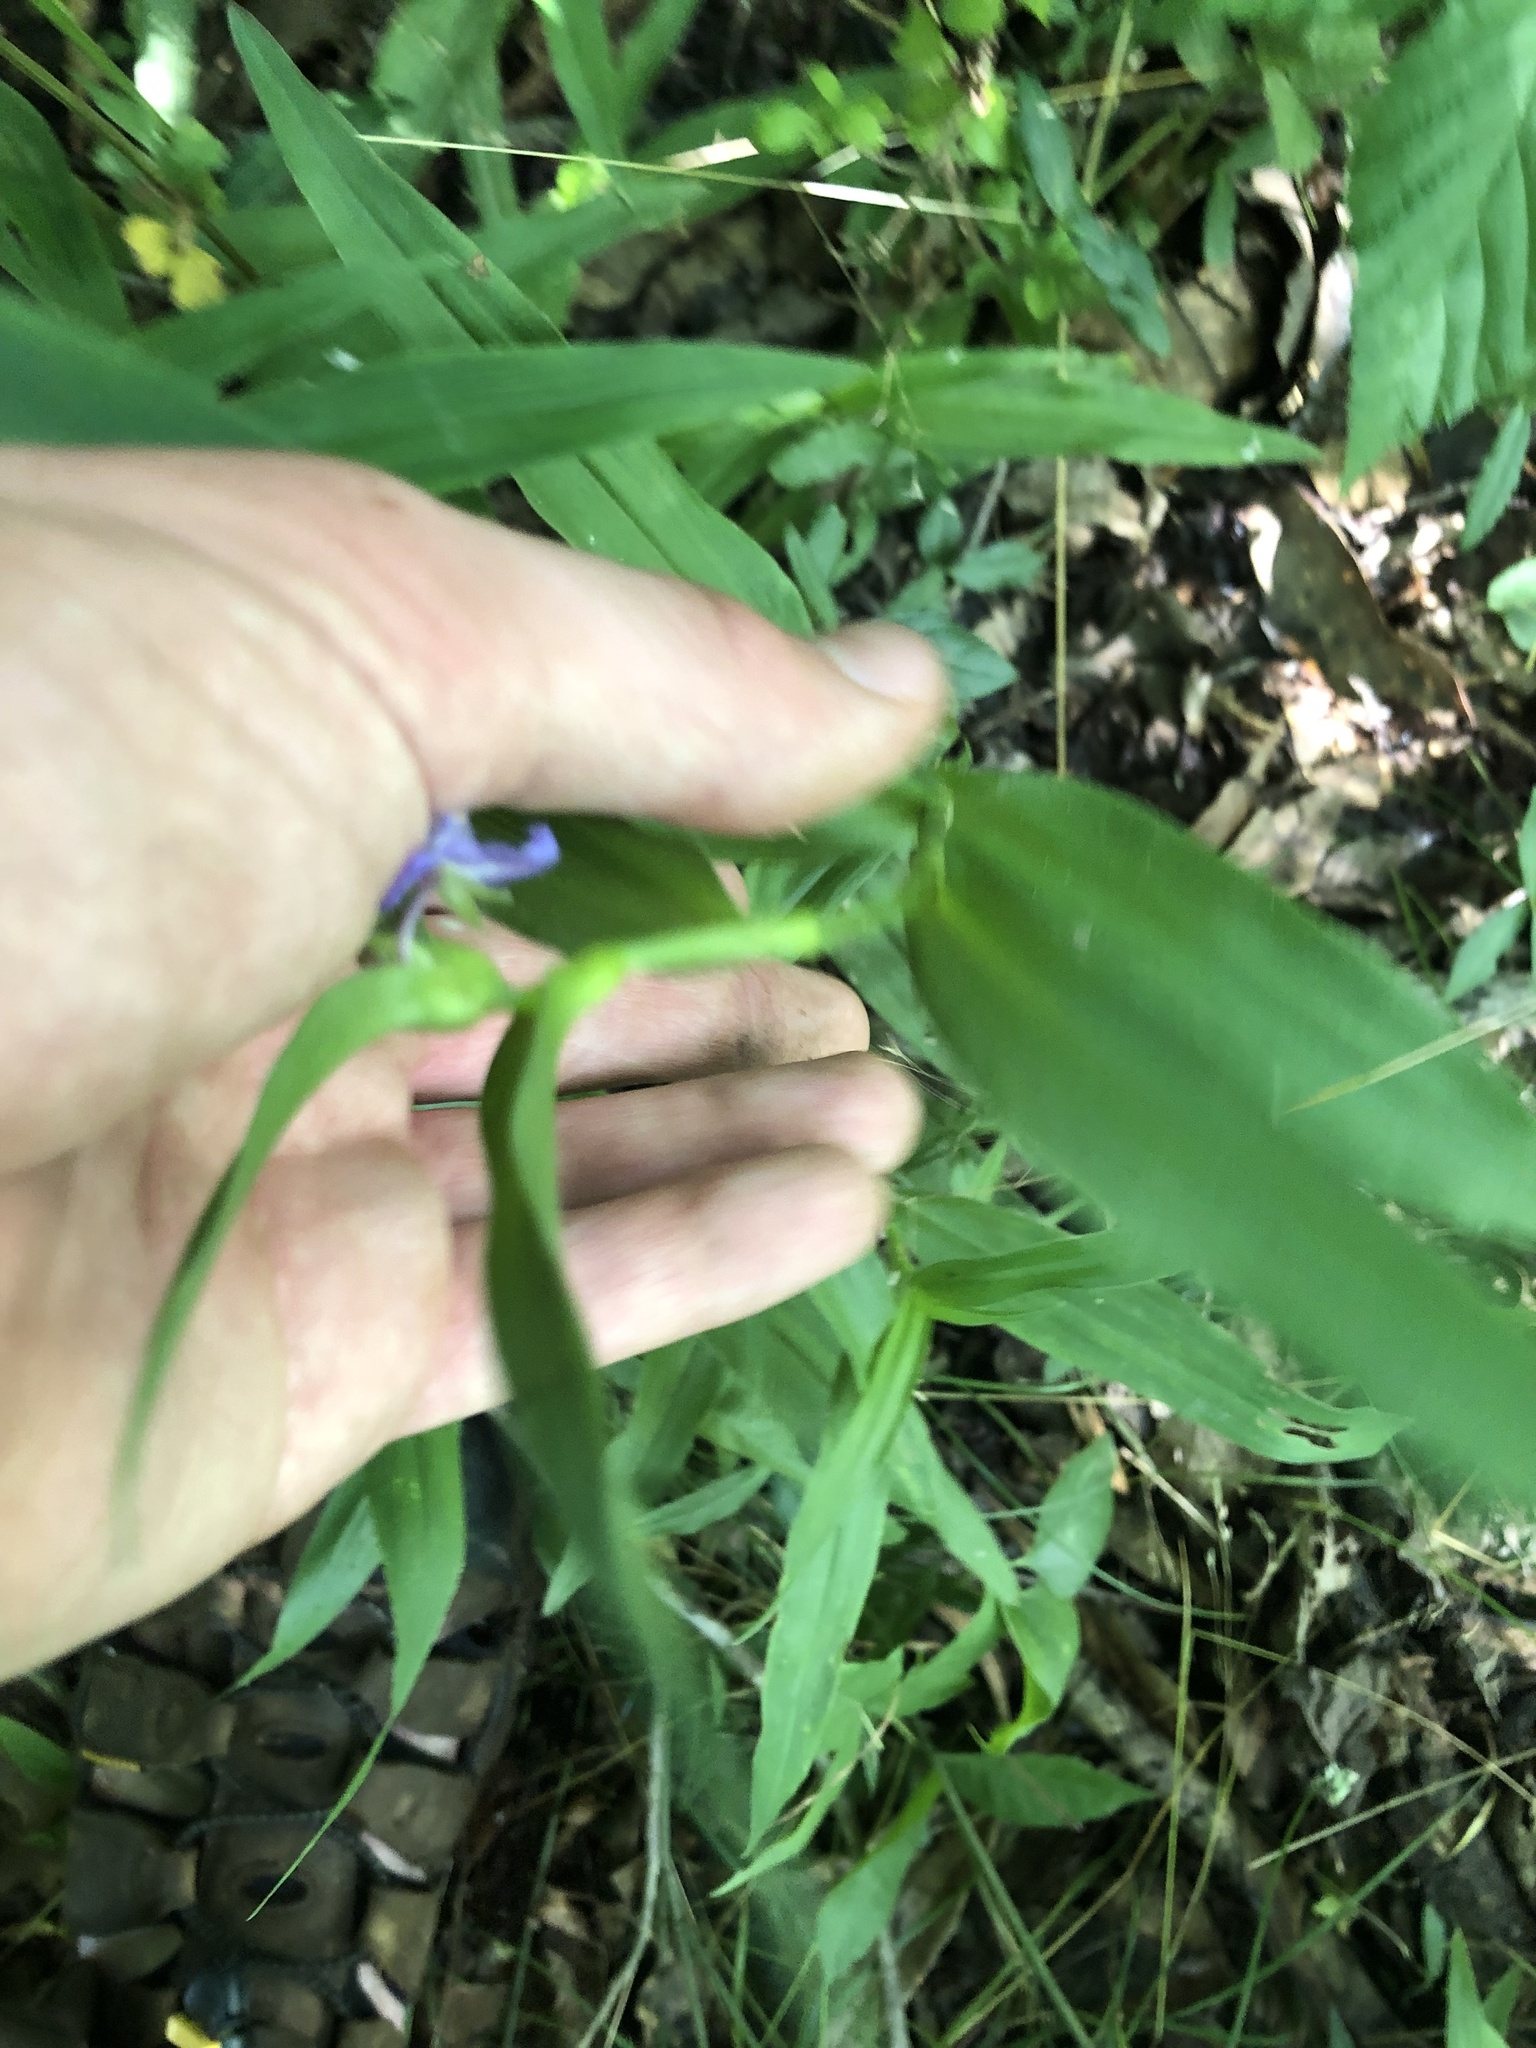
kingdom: Plantae
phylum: Tracheophyta
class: Liliopsida
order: Commelinales
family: Commelinaceae
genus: Tradescantia
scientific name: Tradescantia subaspera
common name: Wide-leaf spiderwort
